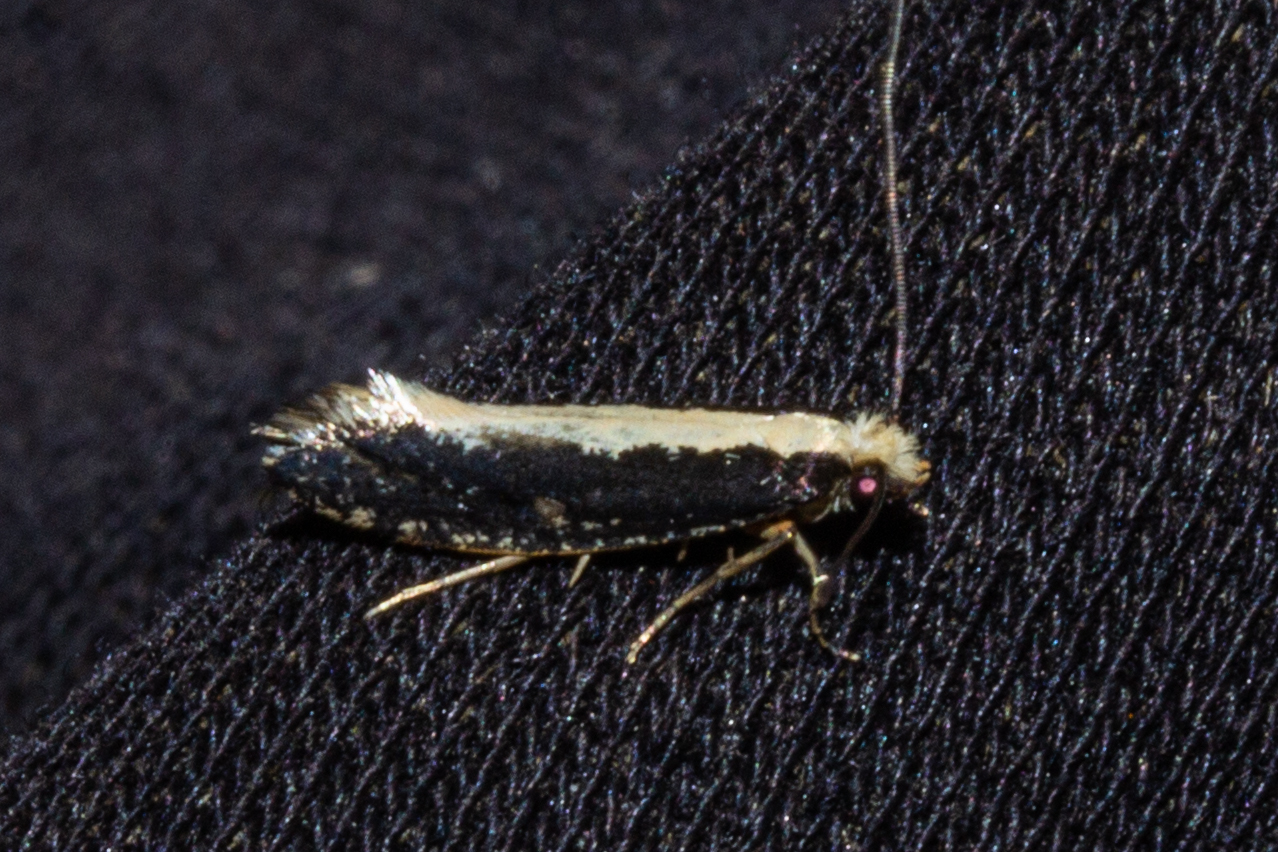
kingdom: Animalia
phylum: Arthropoda
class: Insecta
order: Lepidoptera
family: Tineidae
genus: Monopis
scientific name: Monopis ethelella
